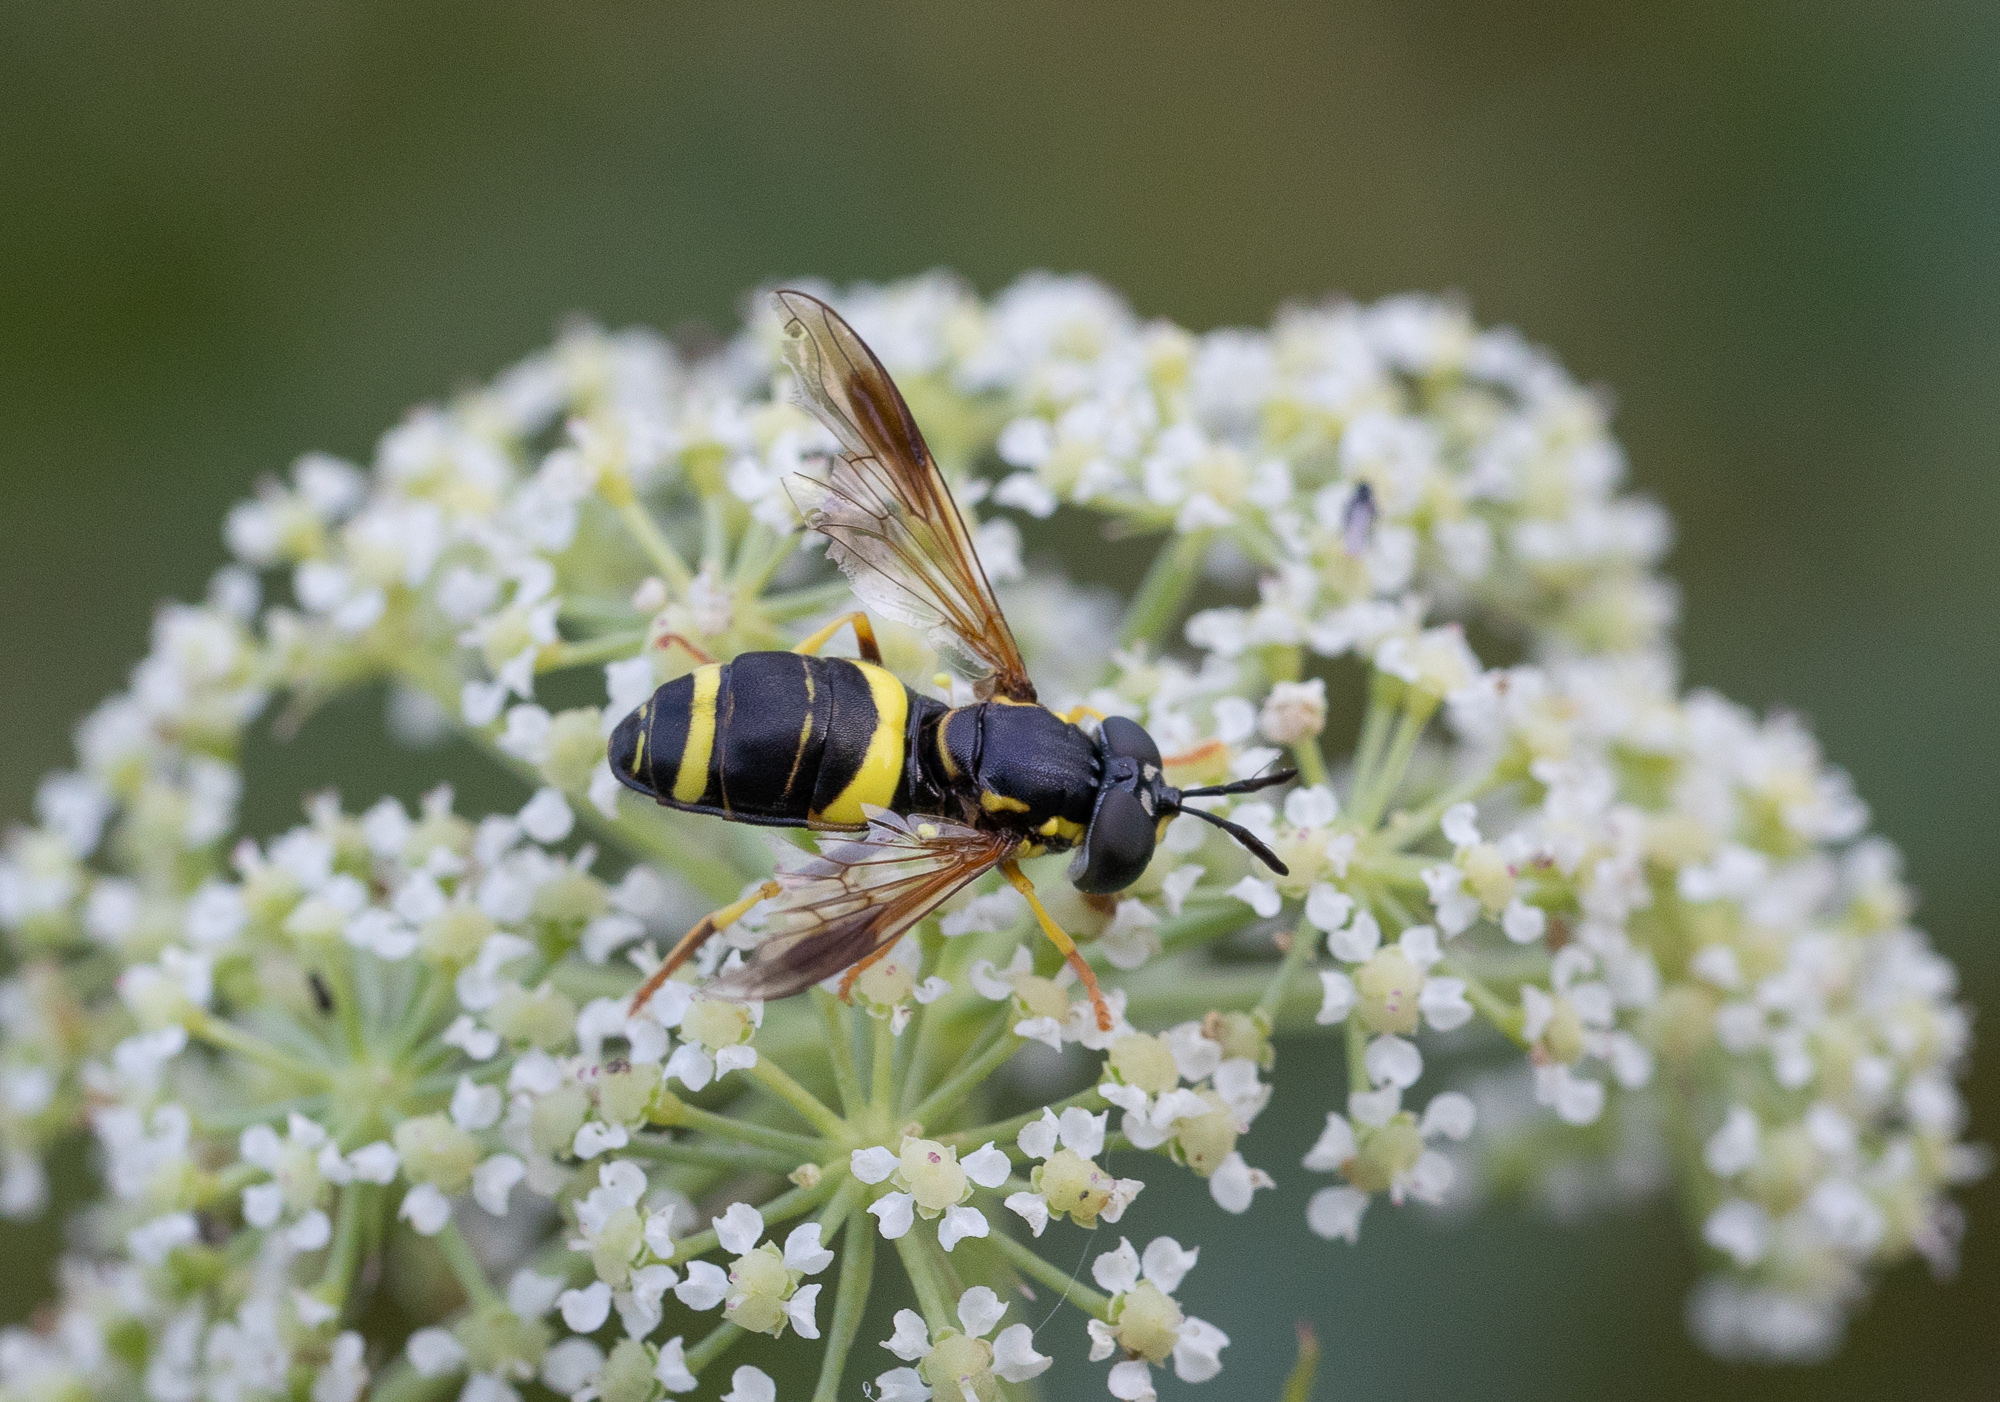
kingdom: Animalia
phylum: Arthropoda
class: Insecta
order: Diptera
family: Syrphidae
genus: Chrysotoxum
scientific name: Chrysotoxum bicincta
